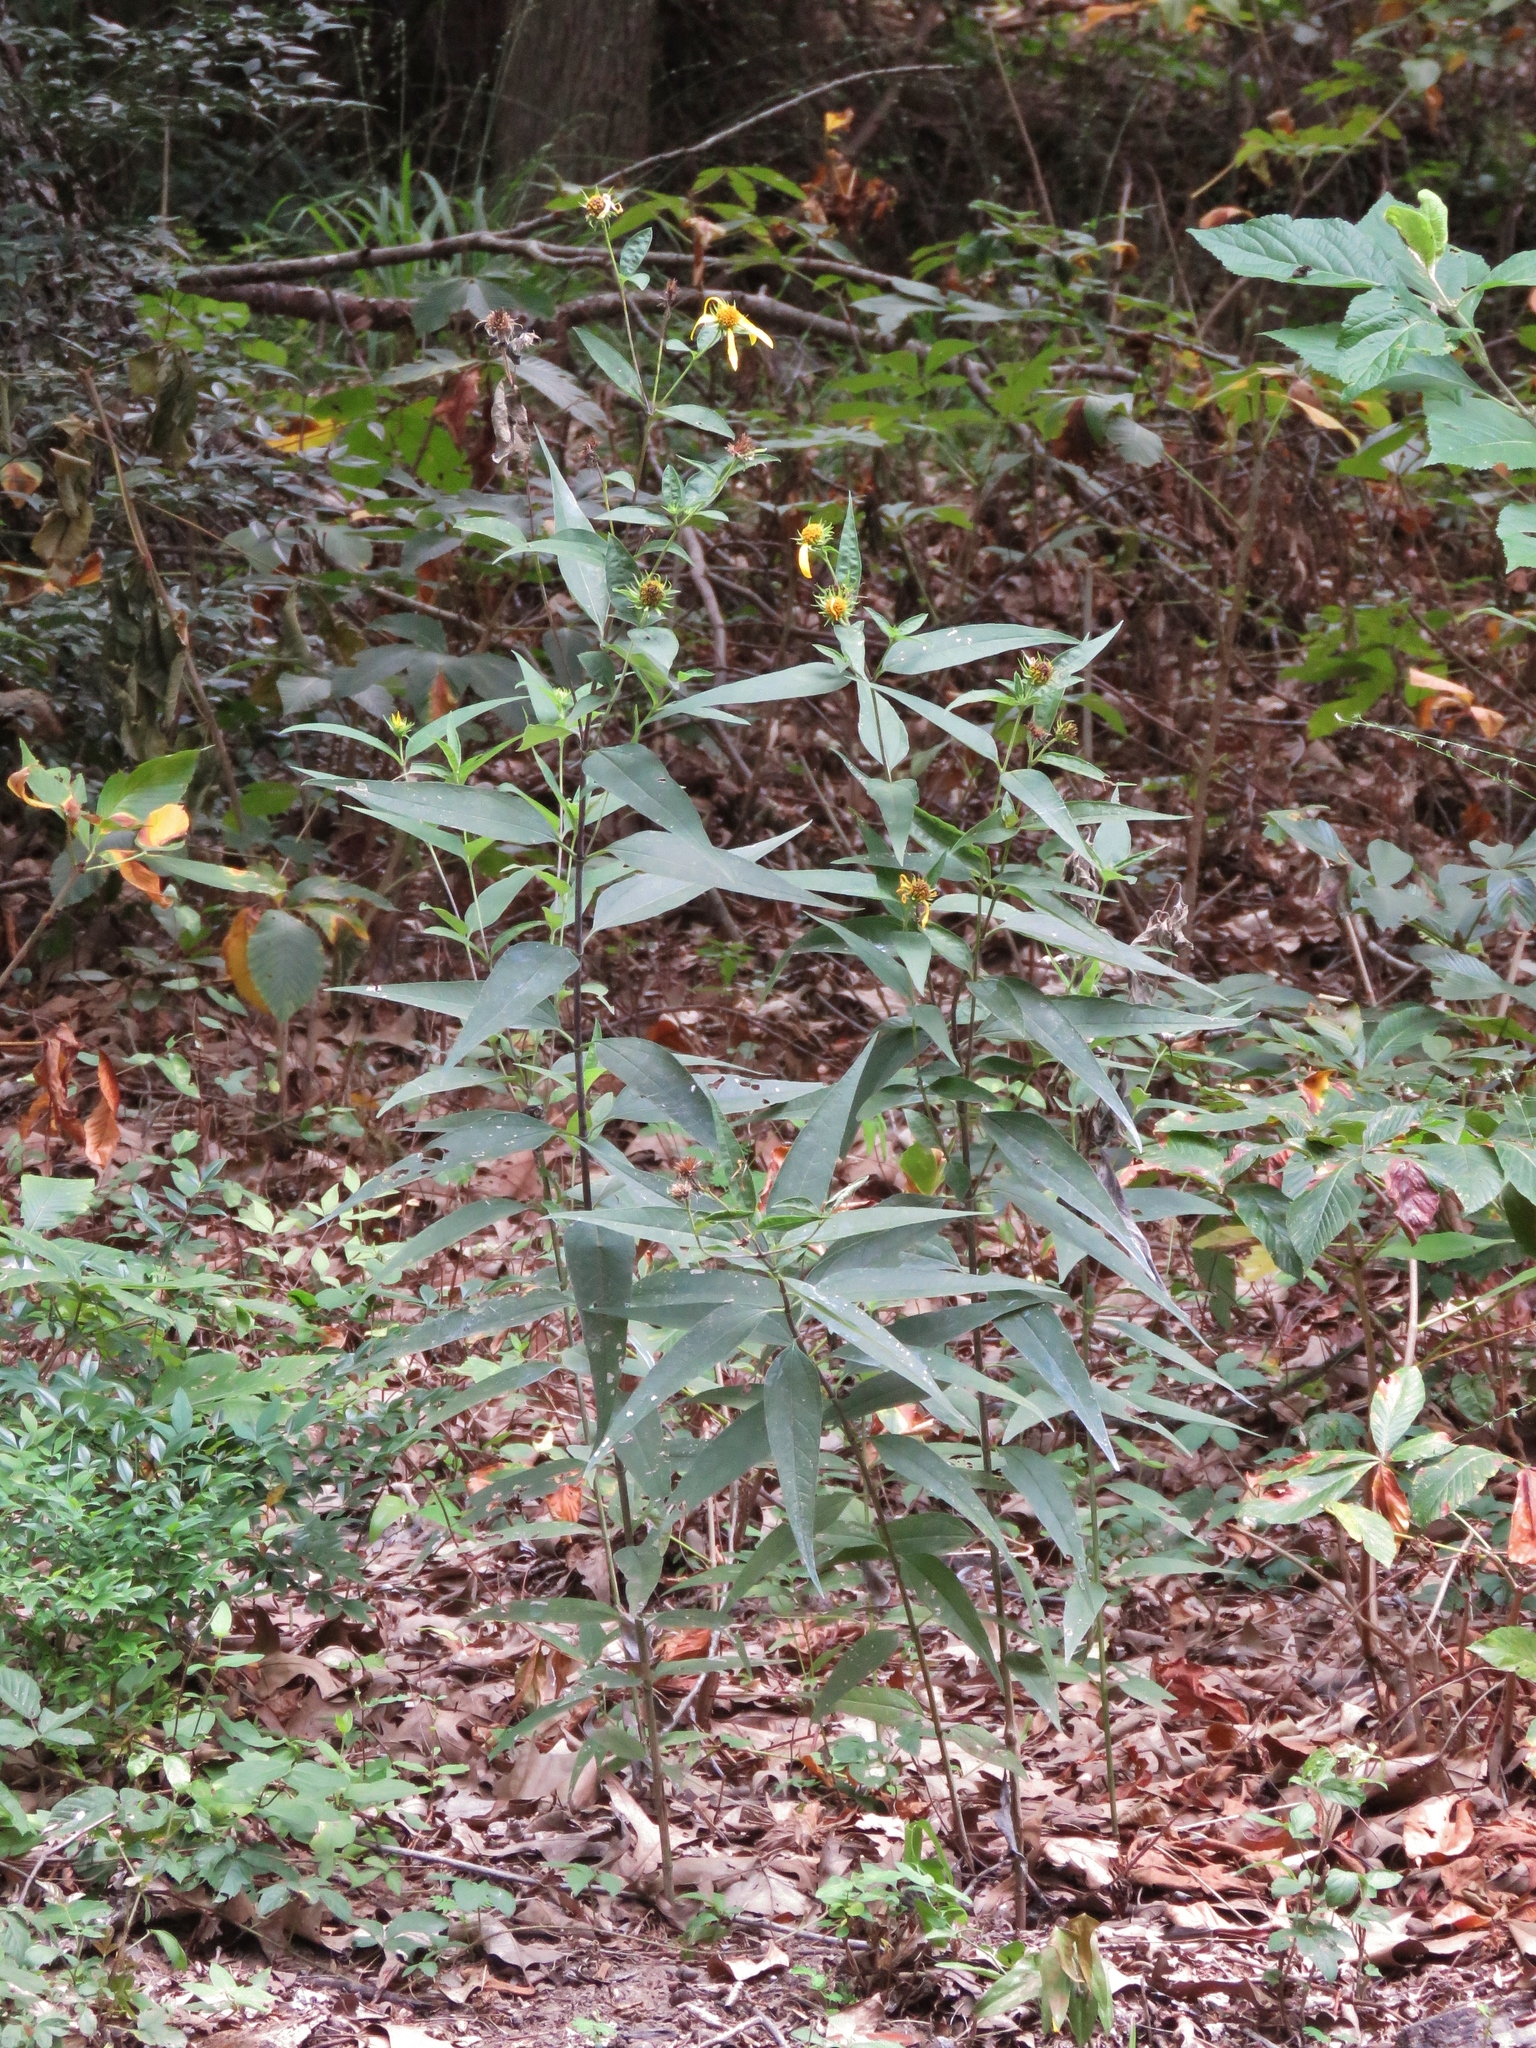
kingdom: Plantae
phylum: Tracheophyta
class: Magnoliopsida
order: Asterales
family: Asteraceae
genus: Helianthus
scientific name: Helianthus hirsutus
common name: Hairy sunflower
